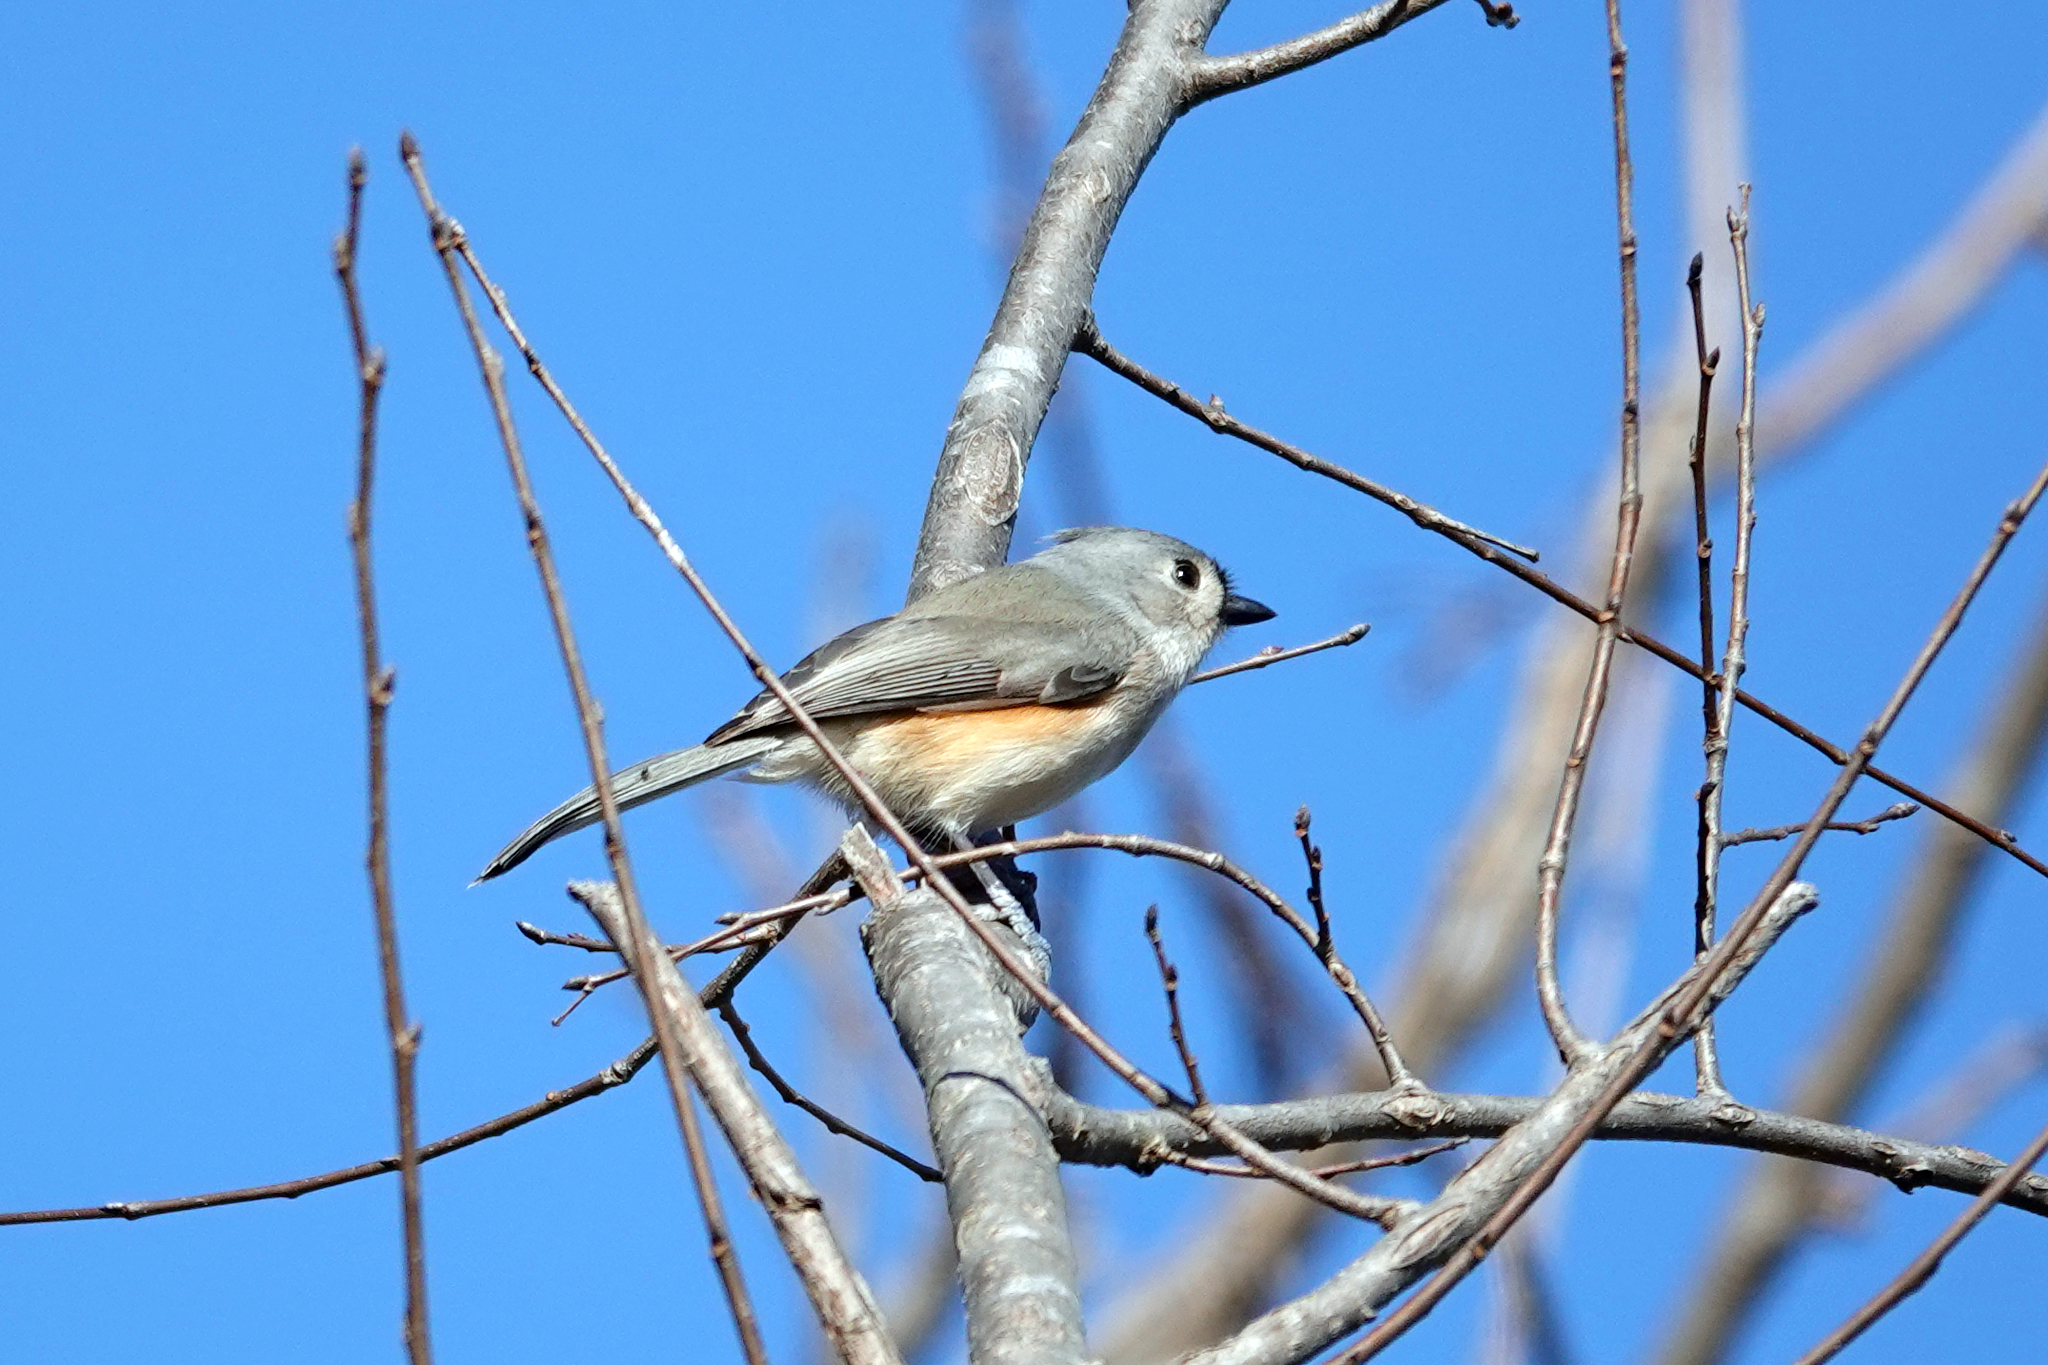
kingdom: Animalia
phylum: Chordata
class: Aves
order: Passeriformes
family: Paridae
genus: Baeolophus
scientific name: Baeolophus bicolor
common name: Tufted titmouse
